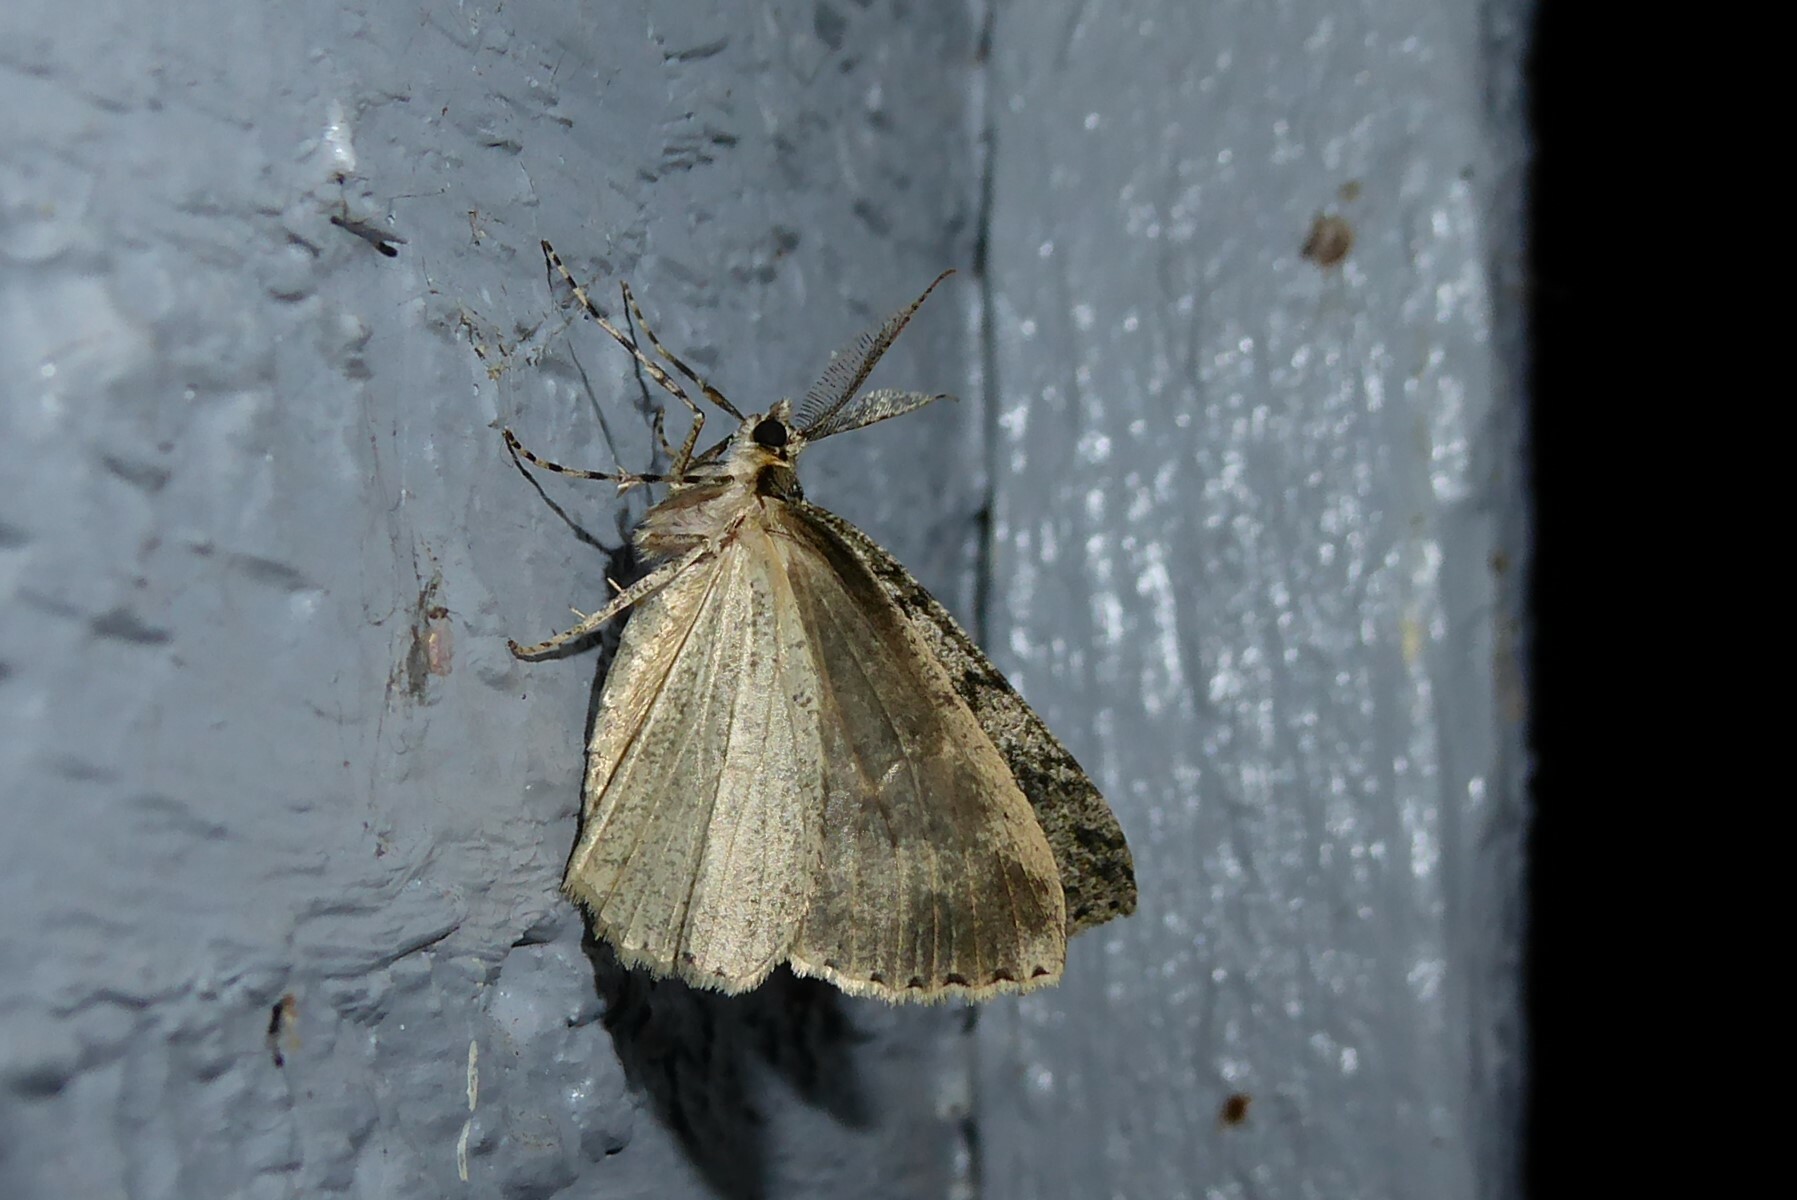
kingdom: Animalia
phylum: Arthropoda
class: Insecta
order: Lepidoptera
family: Geometridae
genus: Pseudocoremia
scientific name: Pseudocoremia rudisata
